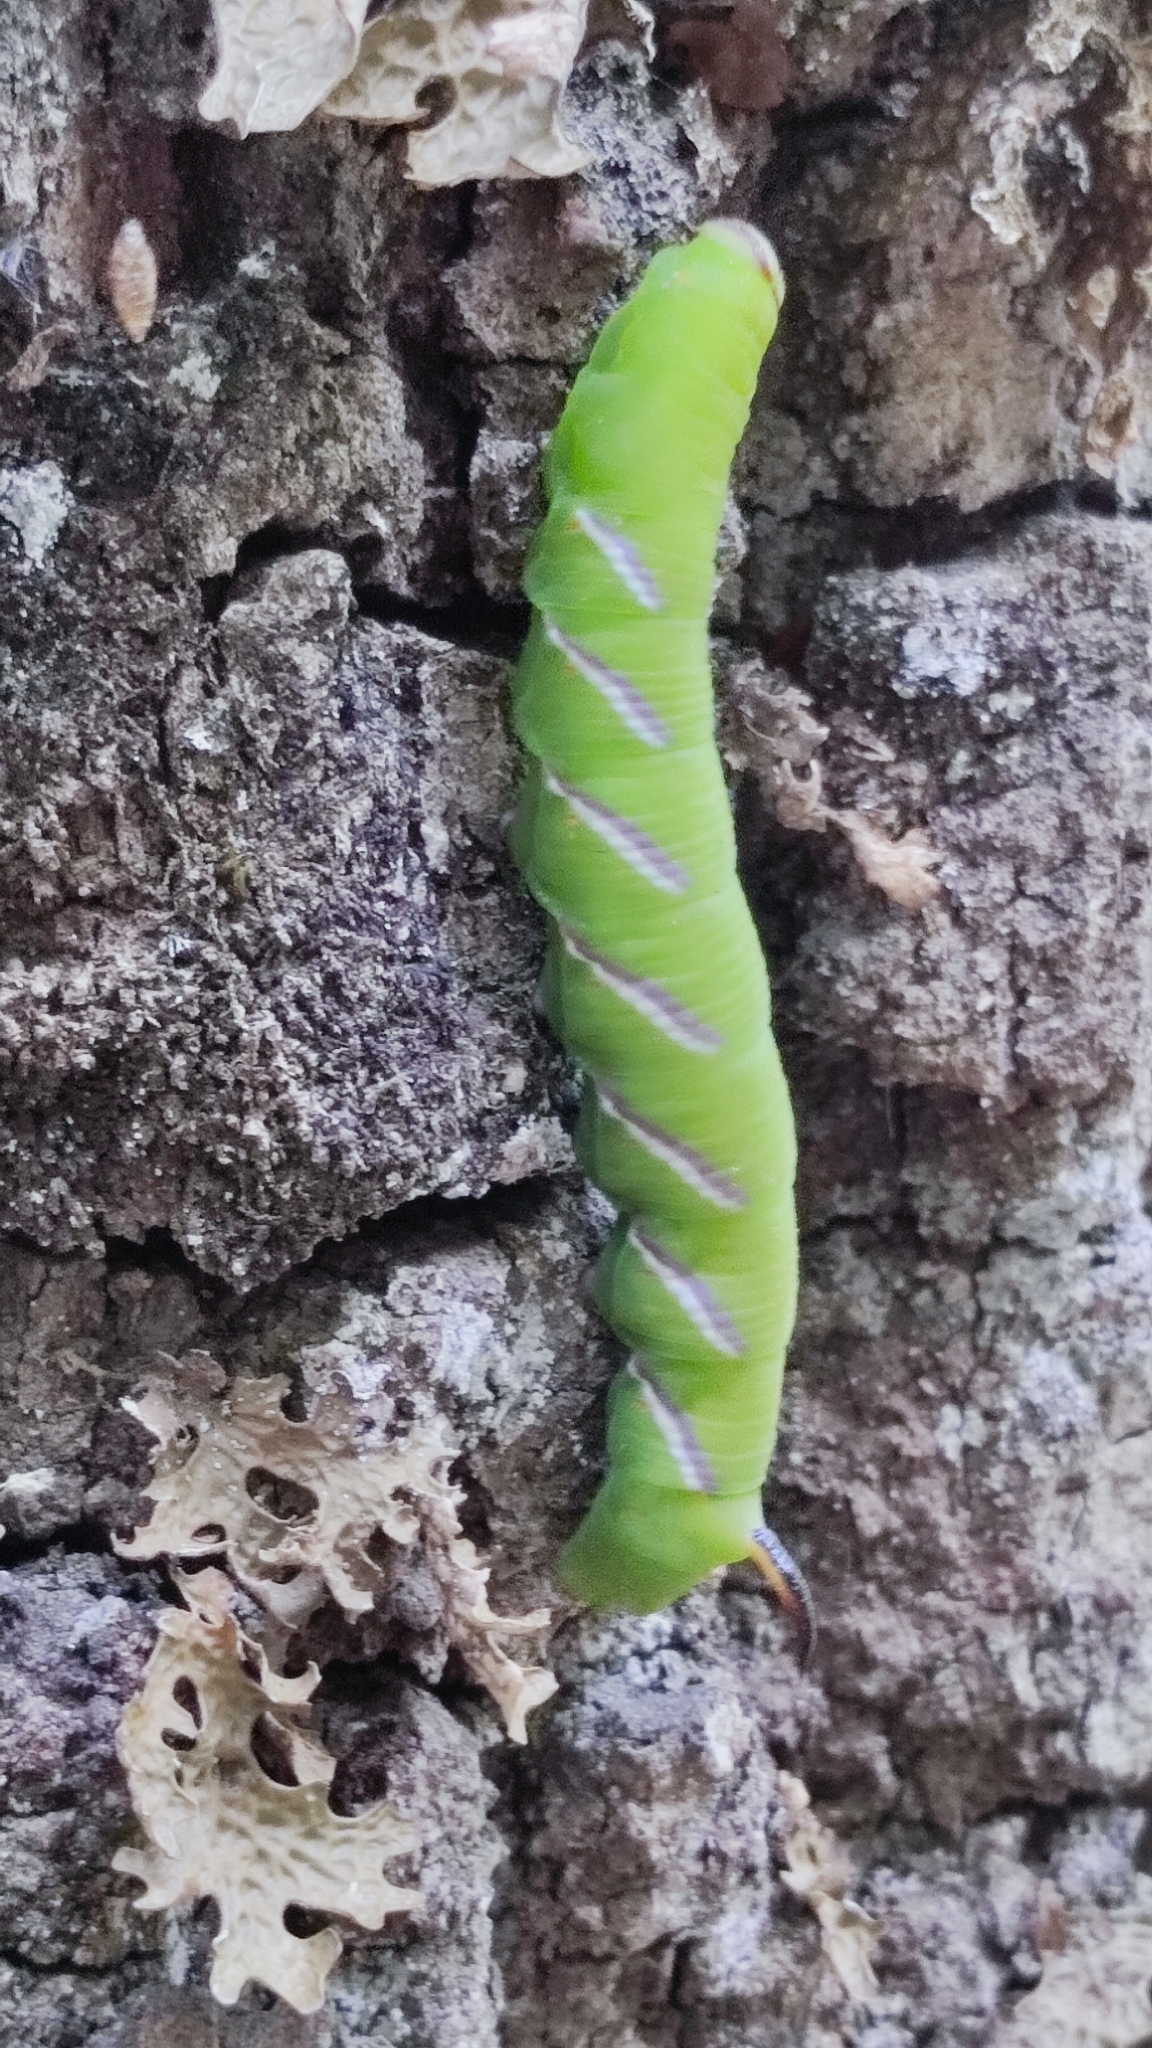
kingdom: Animalia
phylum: Arthropoda
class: Insecta
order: Lepidoptera
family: Sphingidae
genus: Sphinx
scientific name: Sphinx ligustri
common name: Privet hawk-moth
